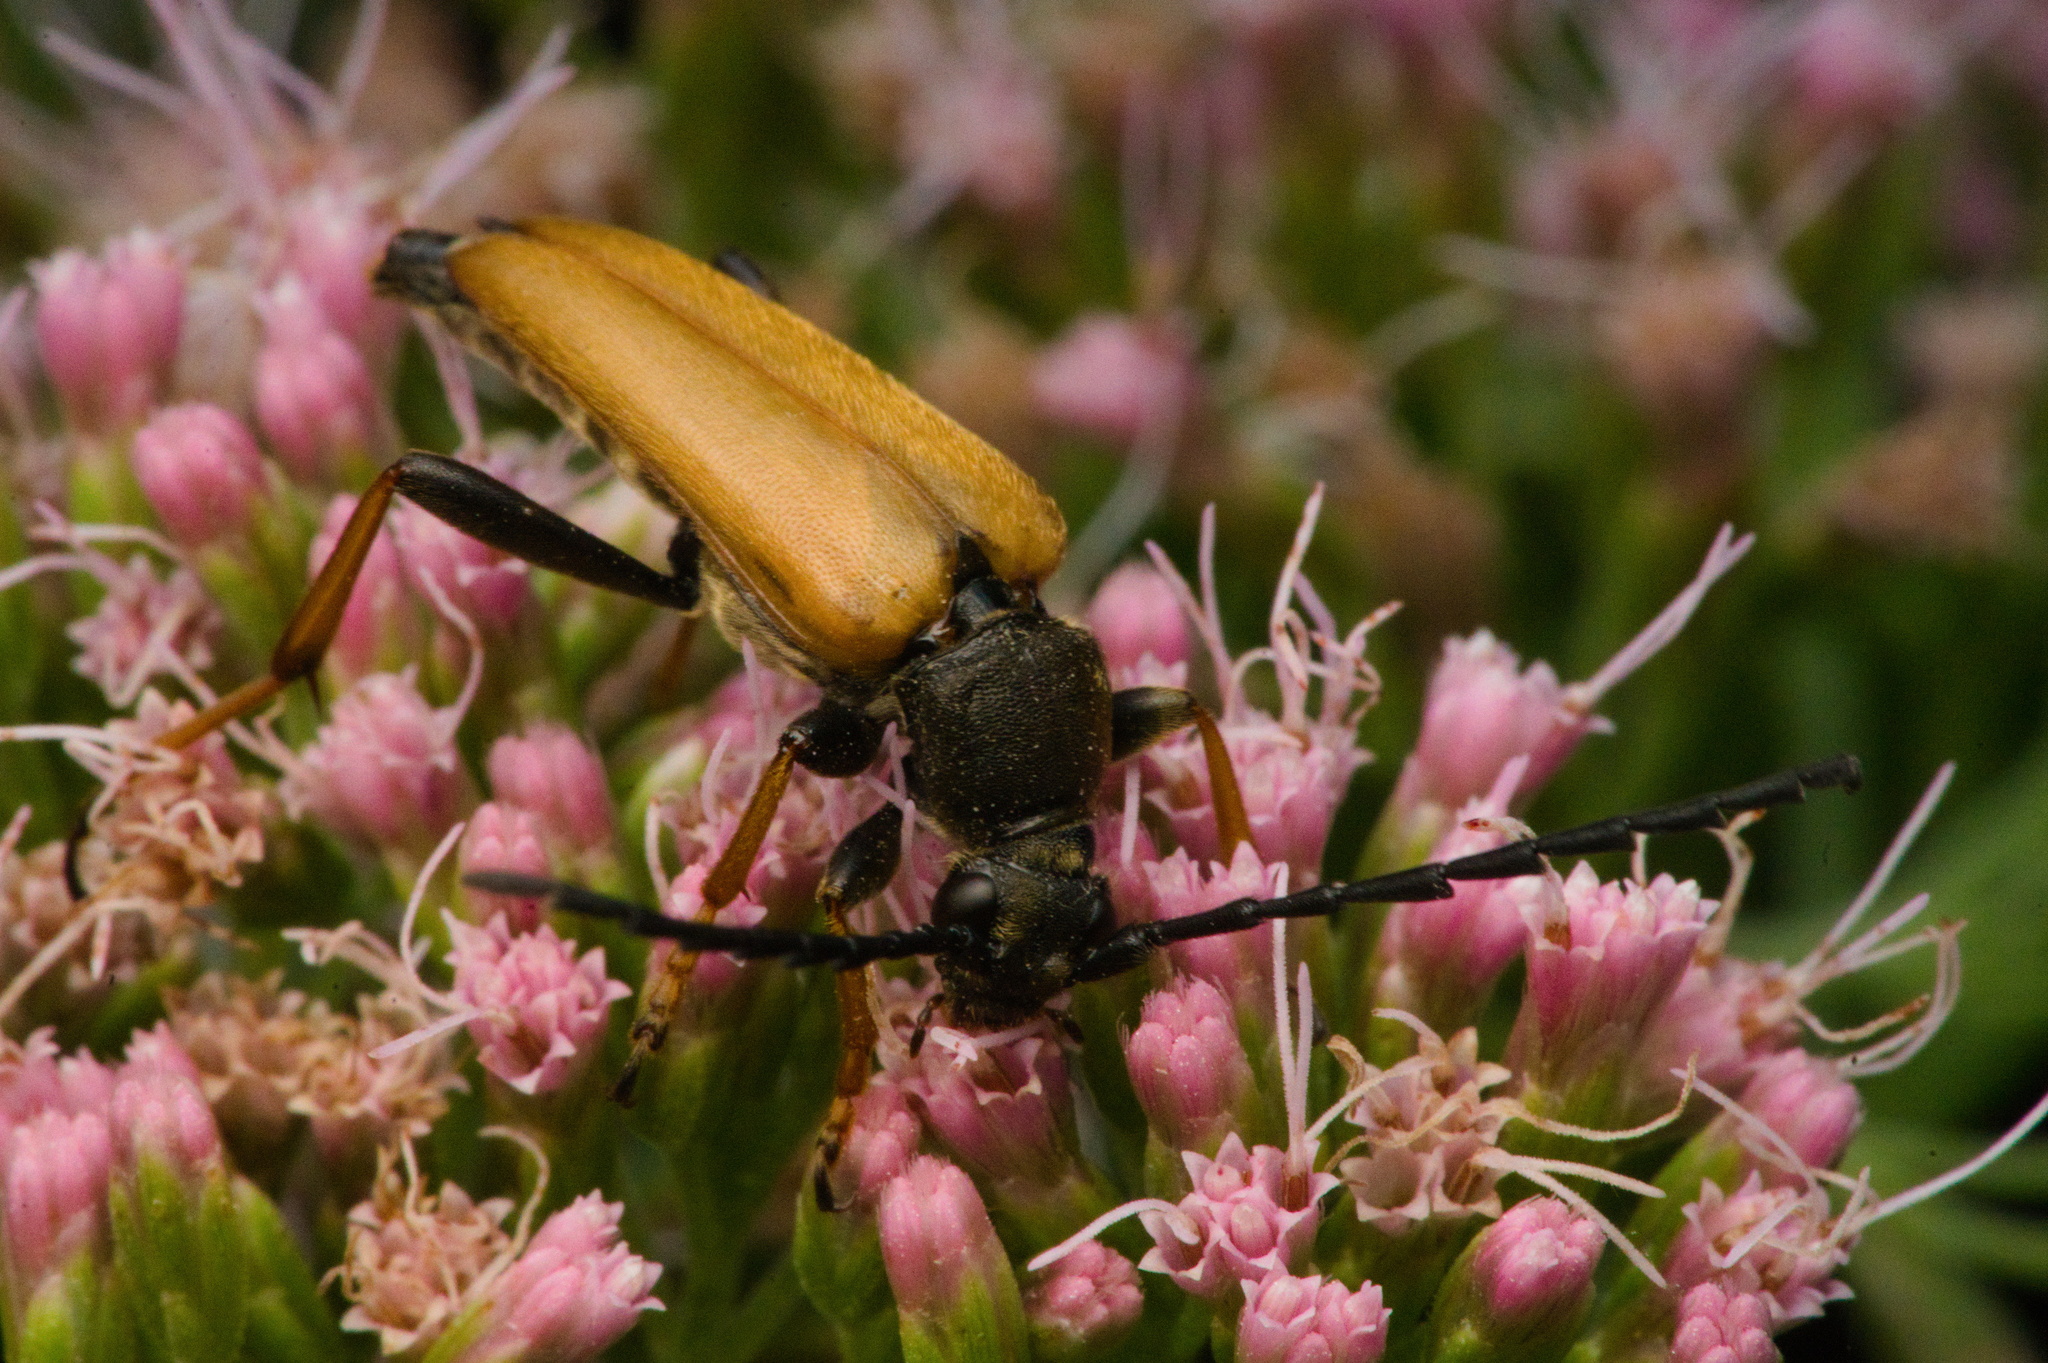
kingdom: Animalia
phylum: Arthropoda
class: Insecta
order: Coleoptera
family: Cerambycidae
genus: Stictoleptura
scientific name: Stictoleptura rubra
